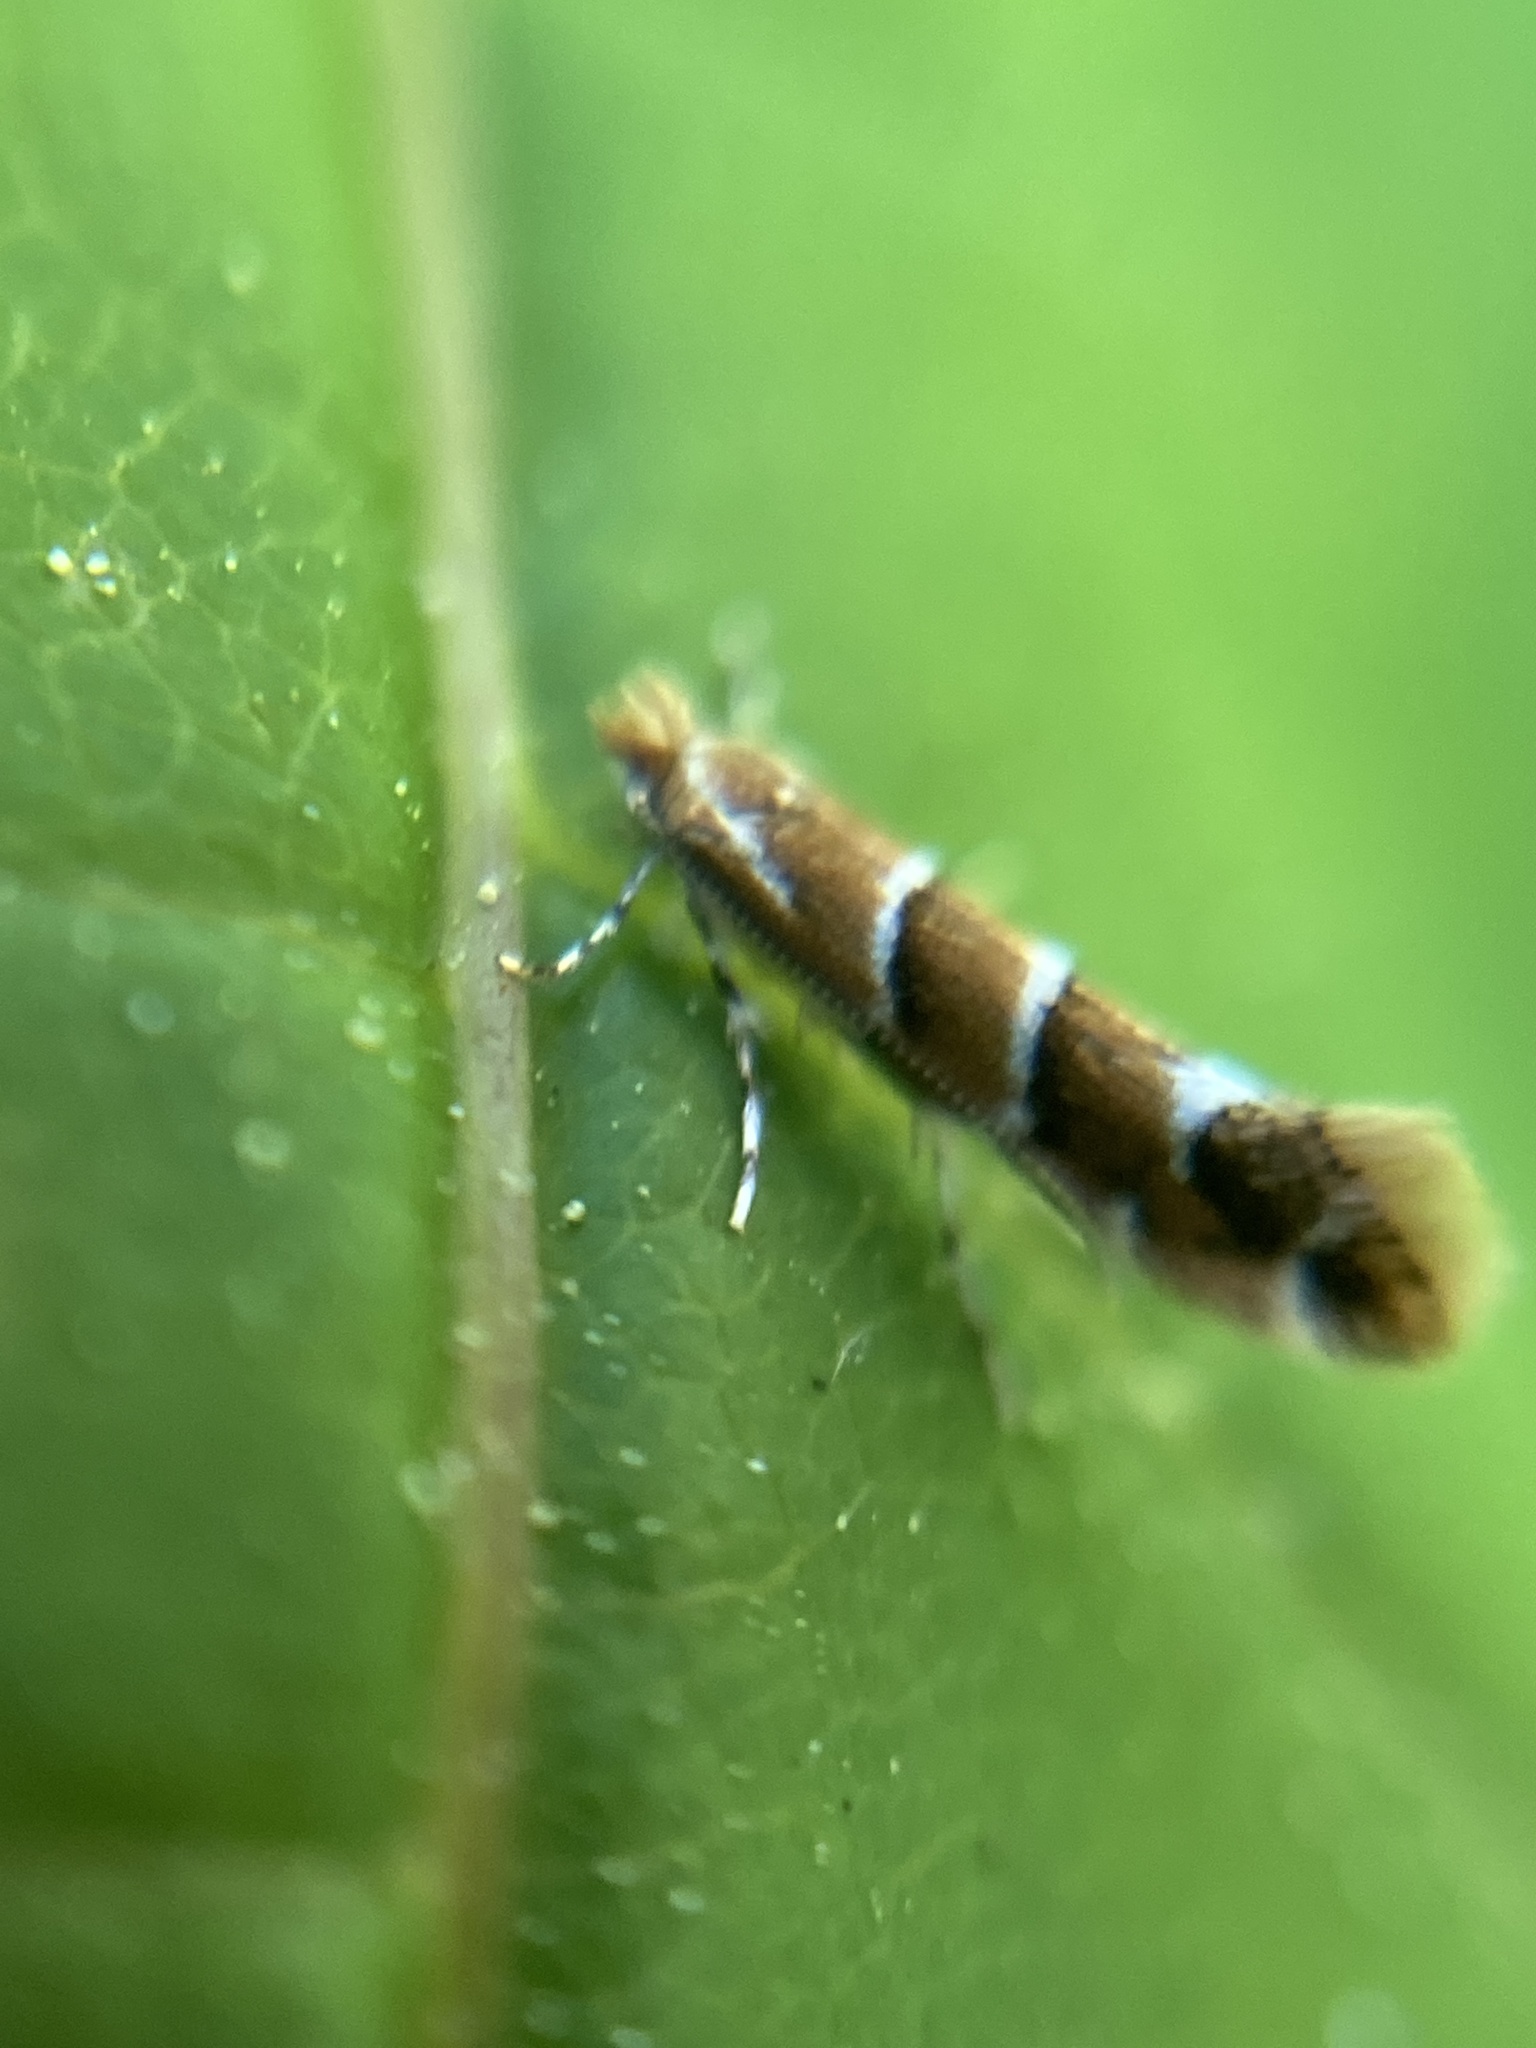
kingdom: Animalia
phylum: Arthropoda
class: Insecta
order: Lepidoptera
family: Gracillariidae
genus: Cameraria
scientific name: Cameraria ohridella
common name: Horse-chestnut leaf-miner
